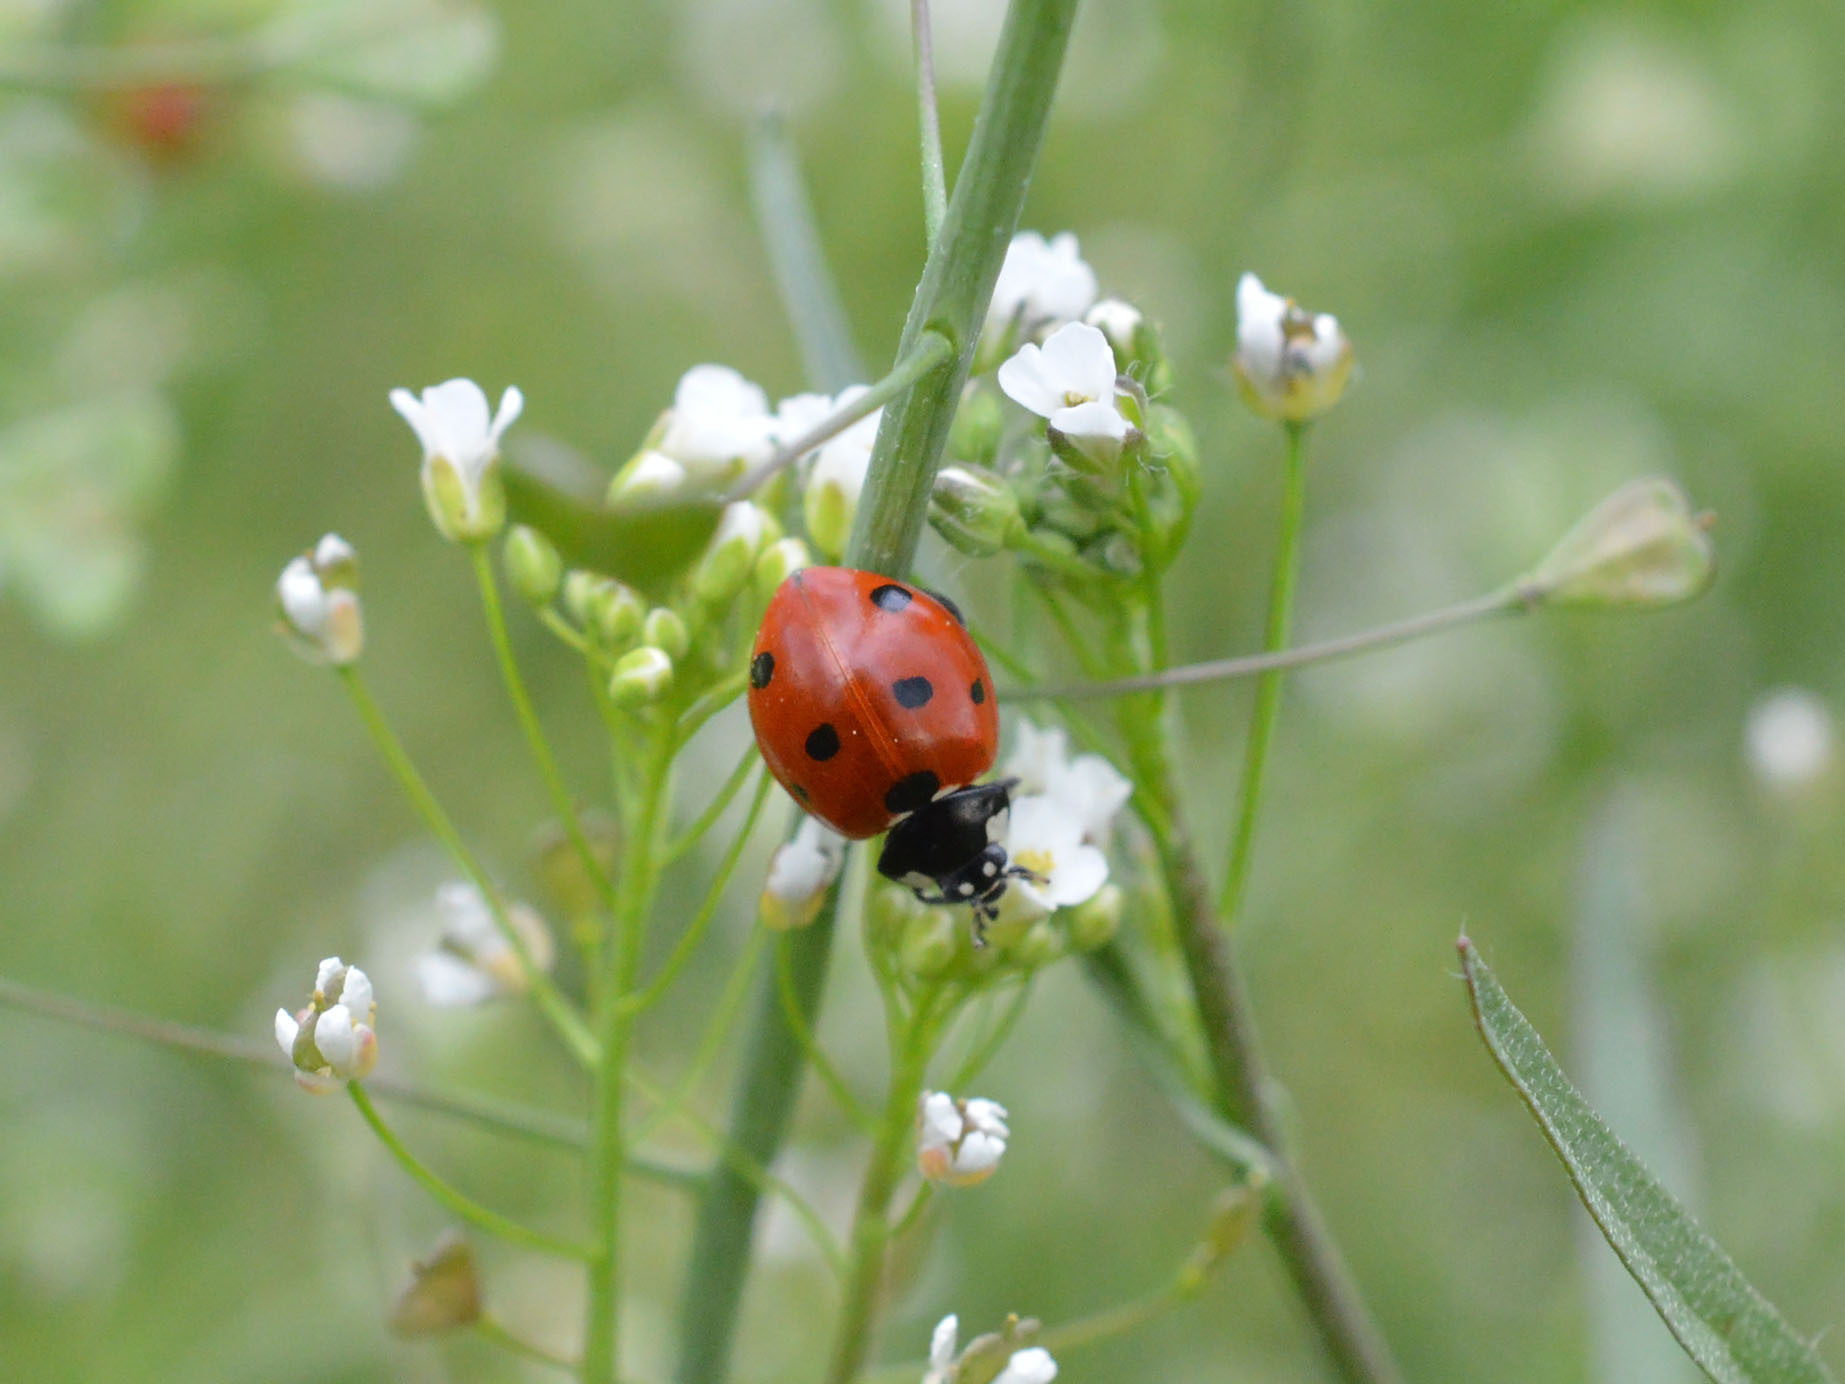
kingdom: Animalia
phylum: Arthropoda
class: Insecta
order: Coleoptera
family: Coccinellidae
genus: Coccinella
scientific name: Coccinella septempunctata
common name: Sevenspotted lady beetle
